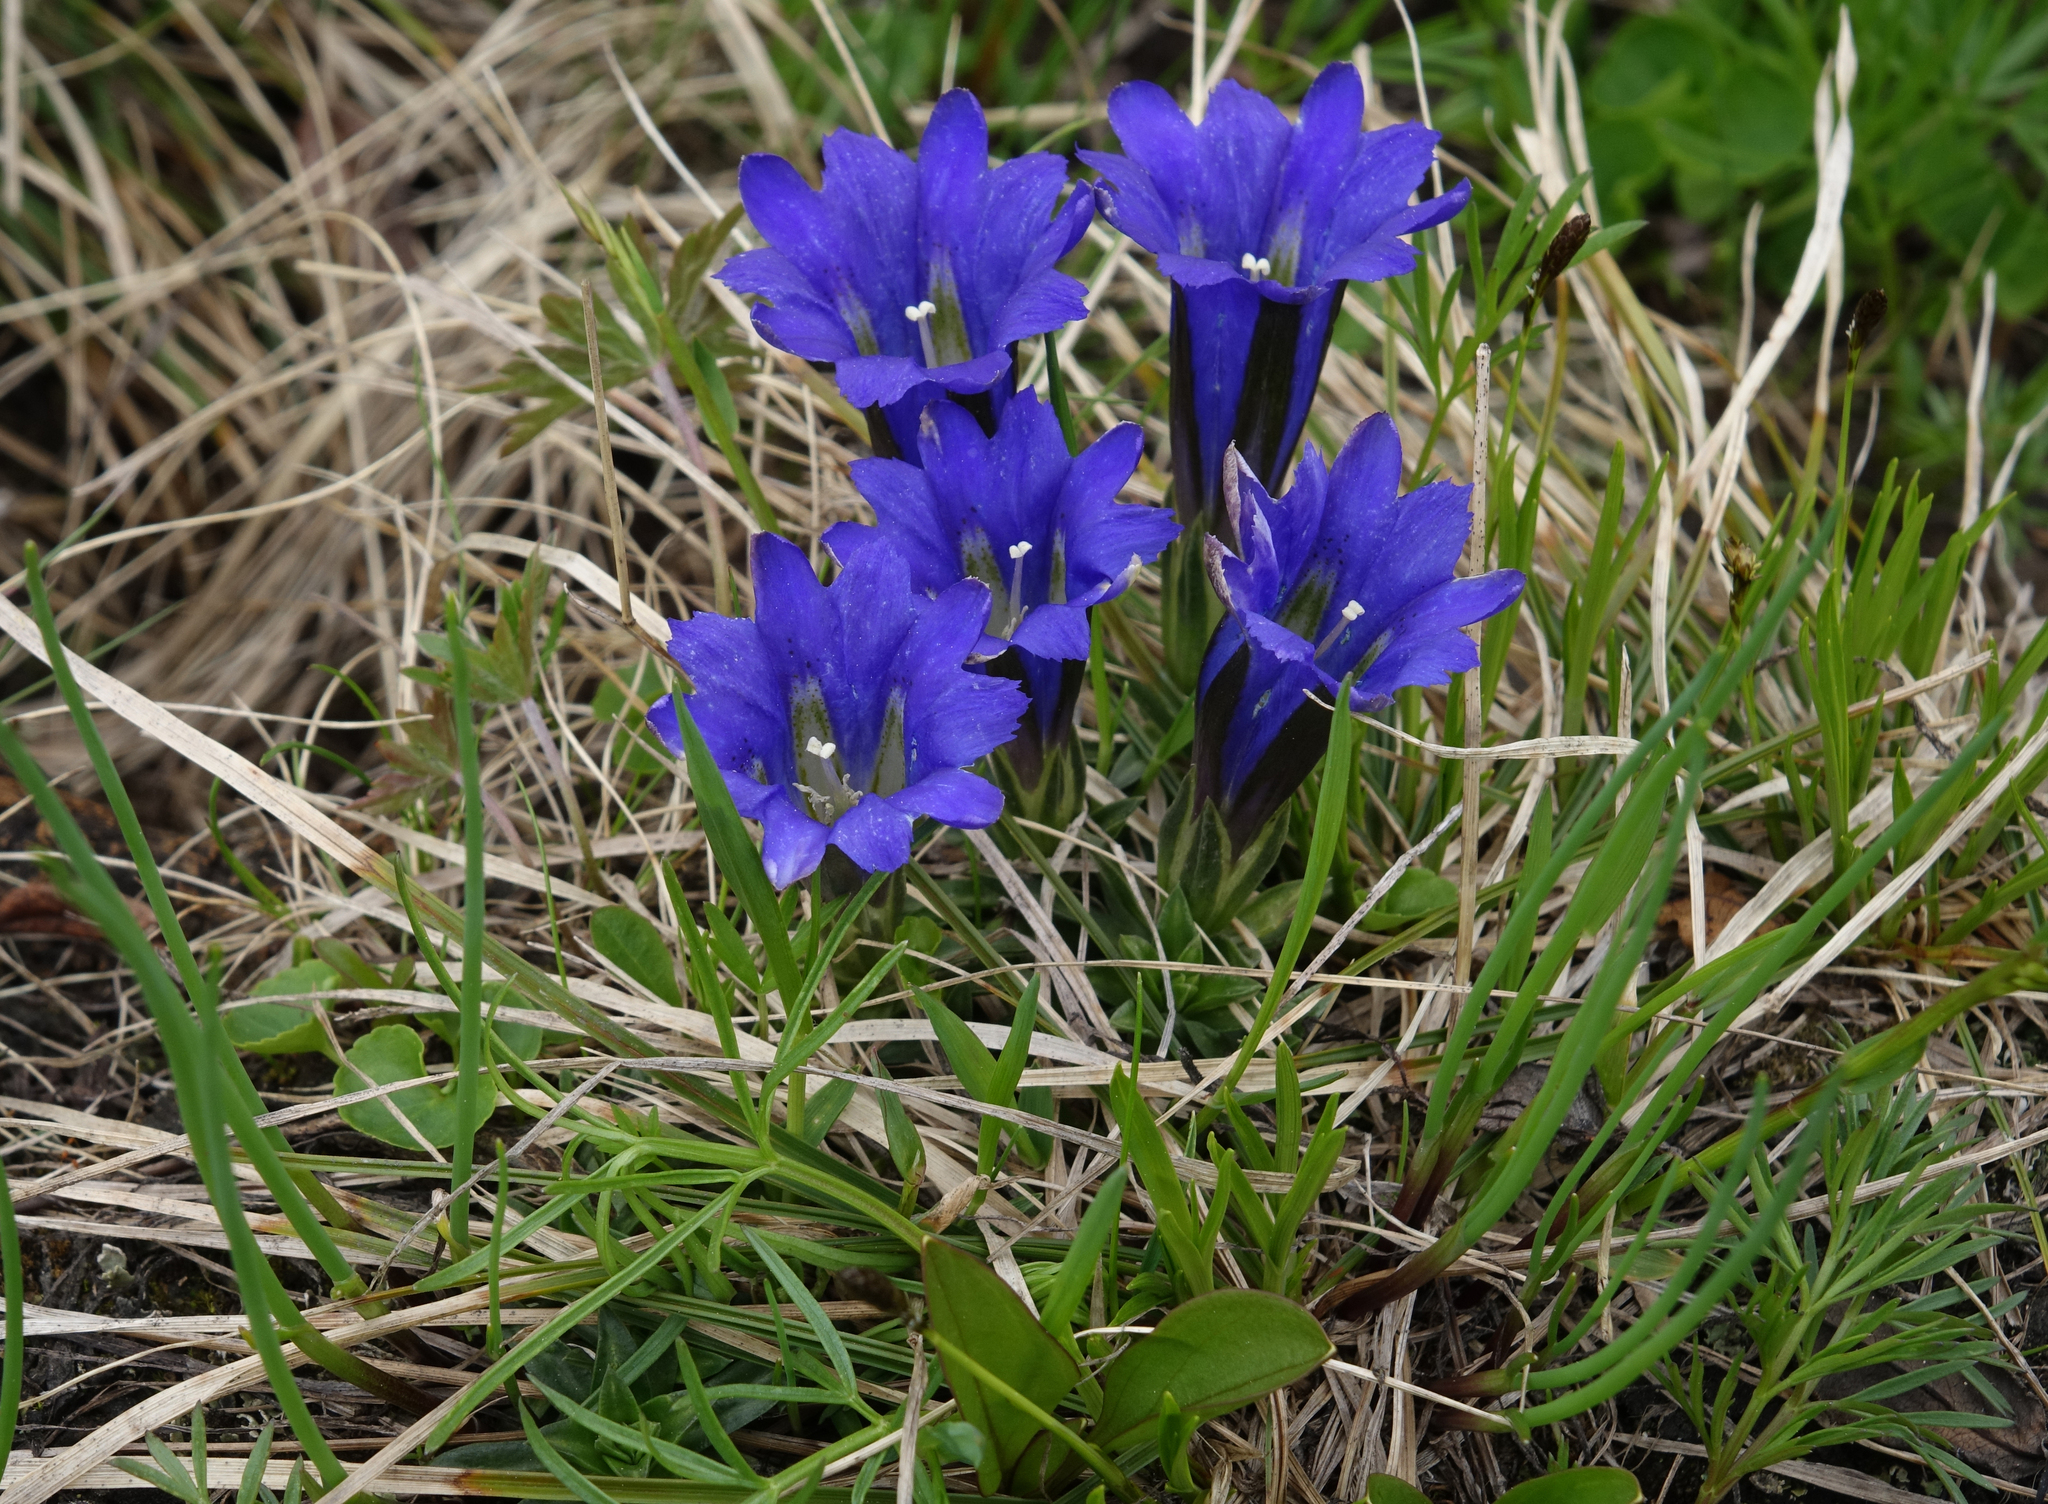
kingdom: Plantae
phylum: Tracheophyta
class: Magnoliopsida
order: Gentianales
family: Gentianaceae
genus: Gentiana
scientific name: Gentiana grandiflora
